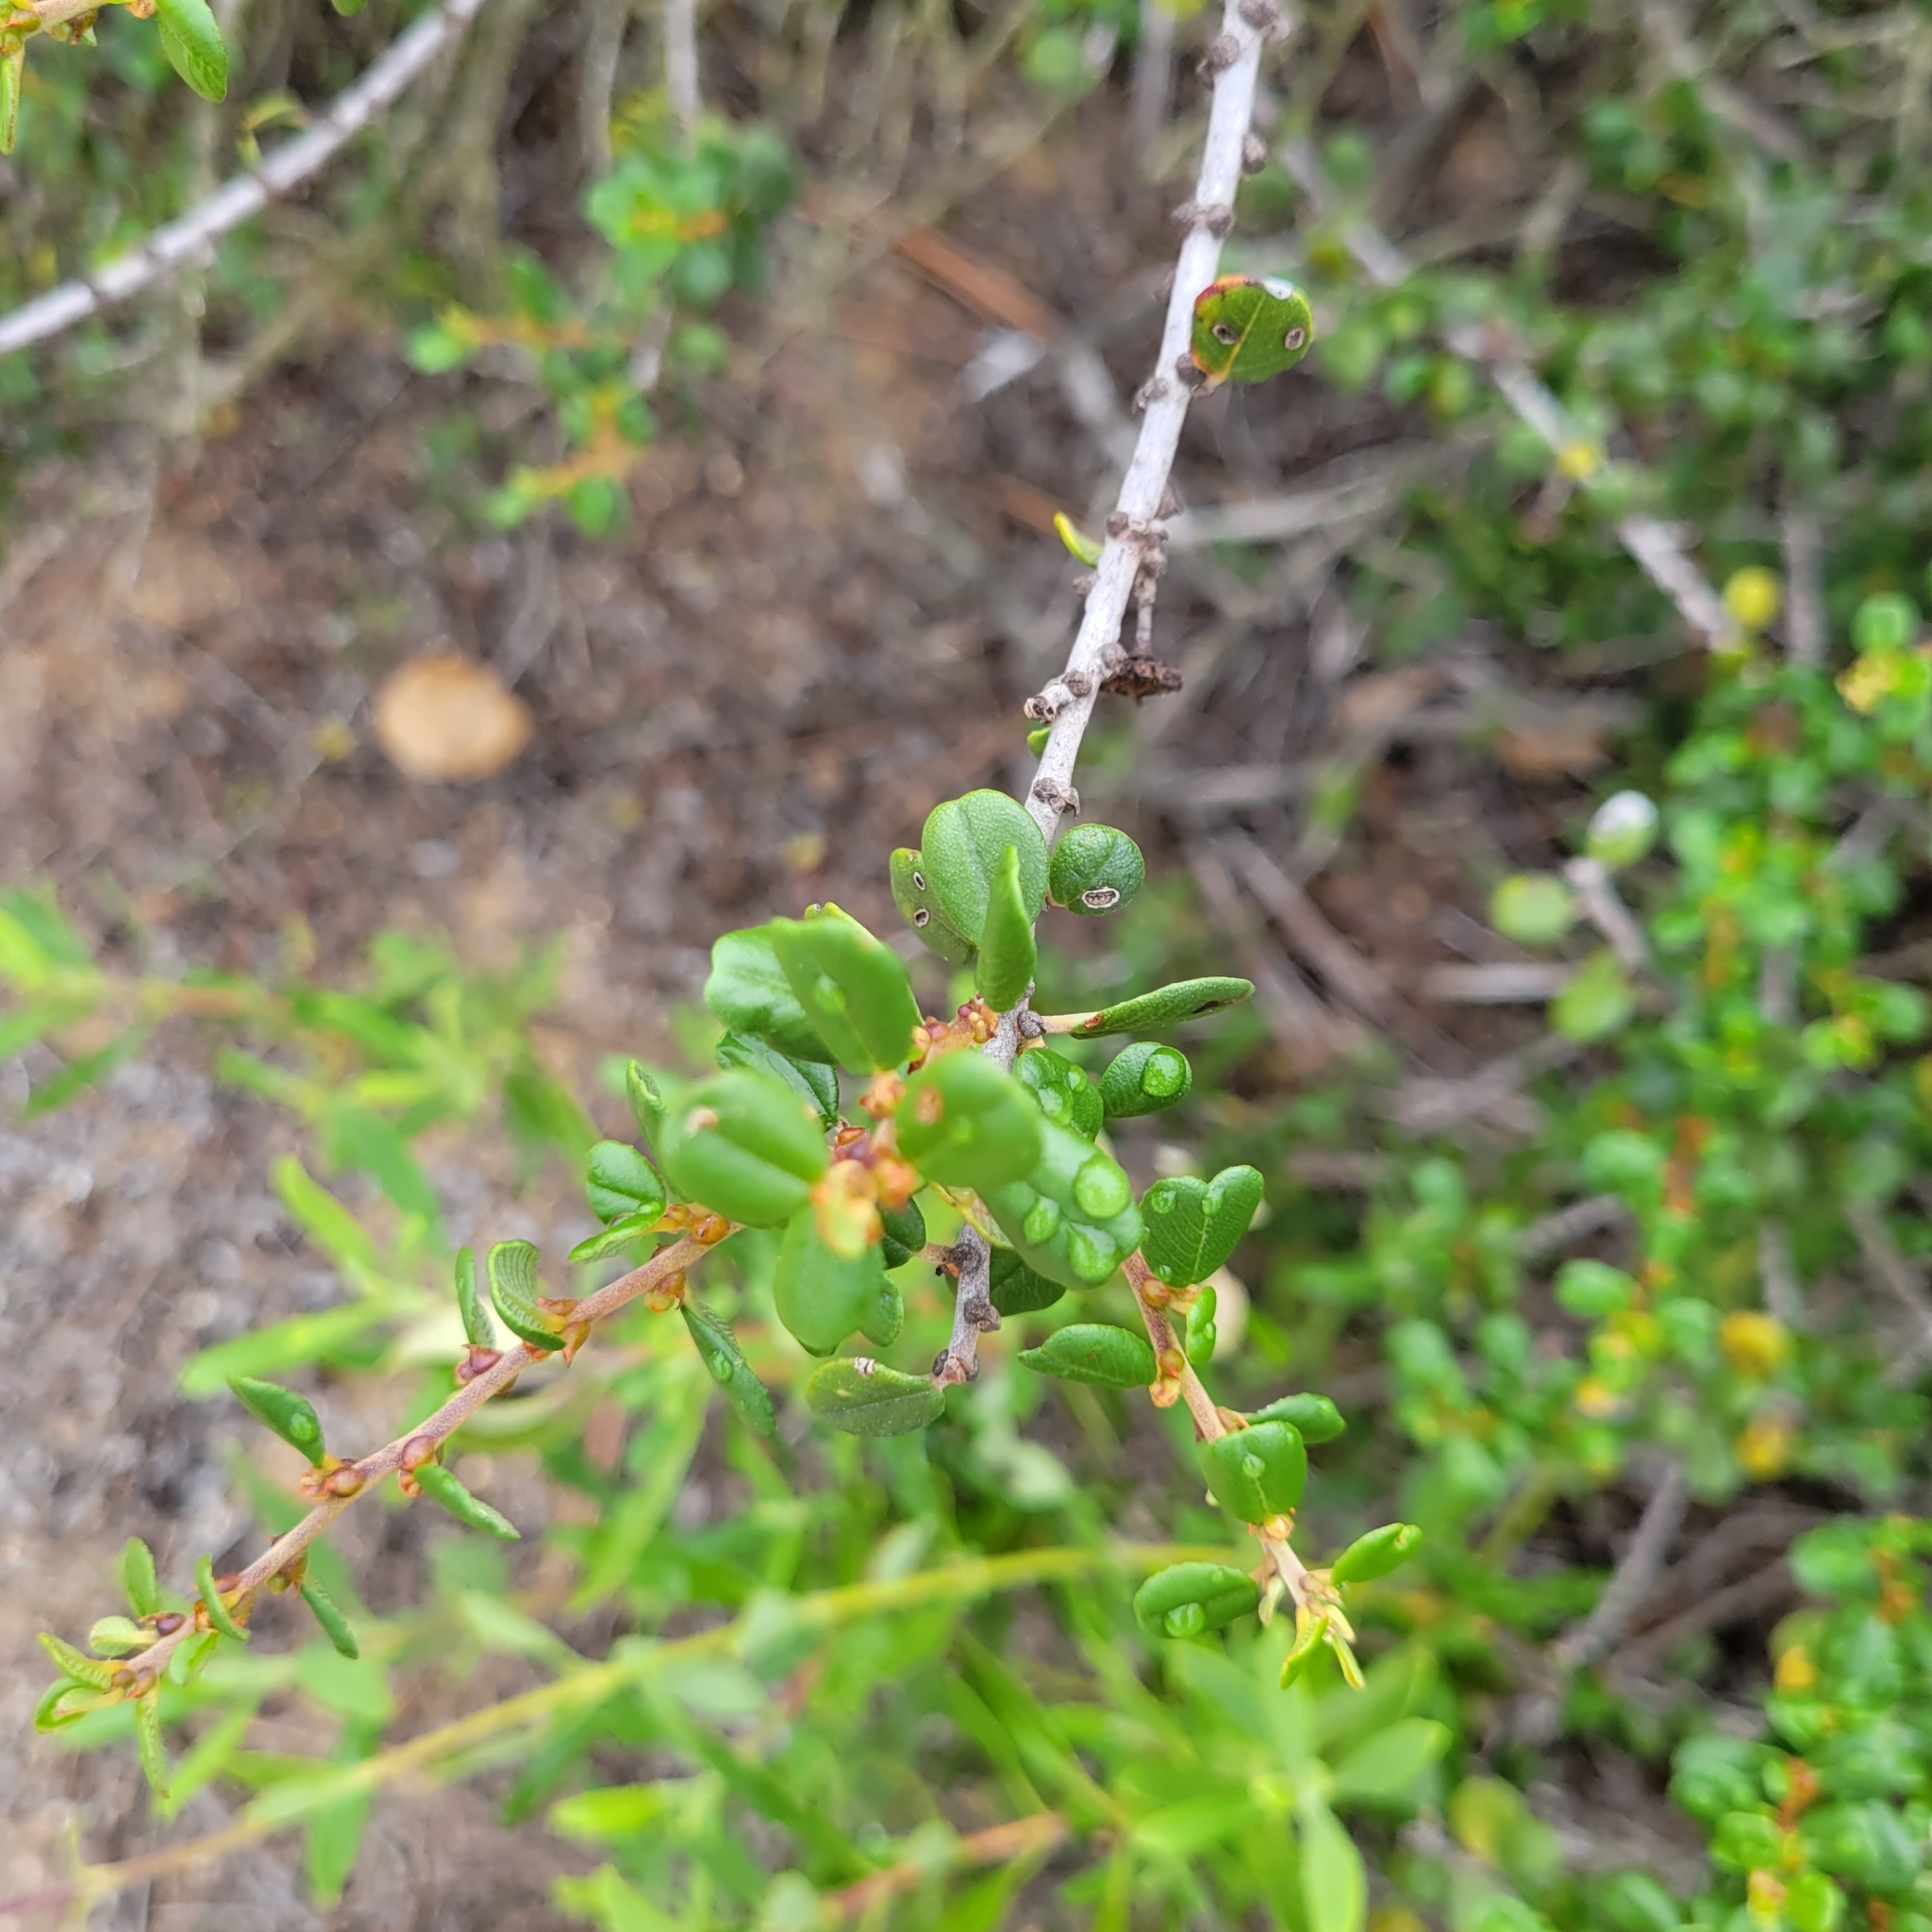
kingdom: Plantae
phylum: Tracheophyta
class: Magnoliopsida
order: Rosales
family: Rhamnaceae
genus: Ceanothus
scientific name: Ceanothus verrucosus
